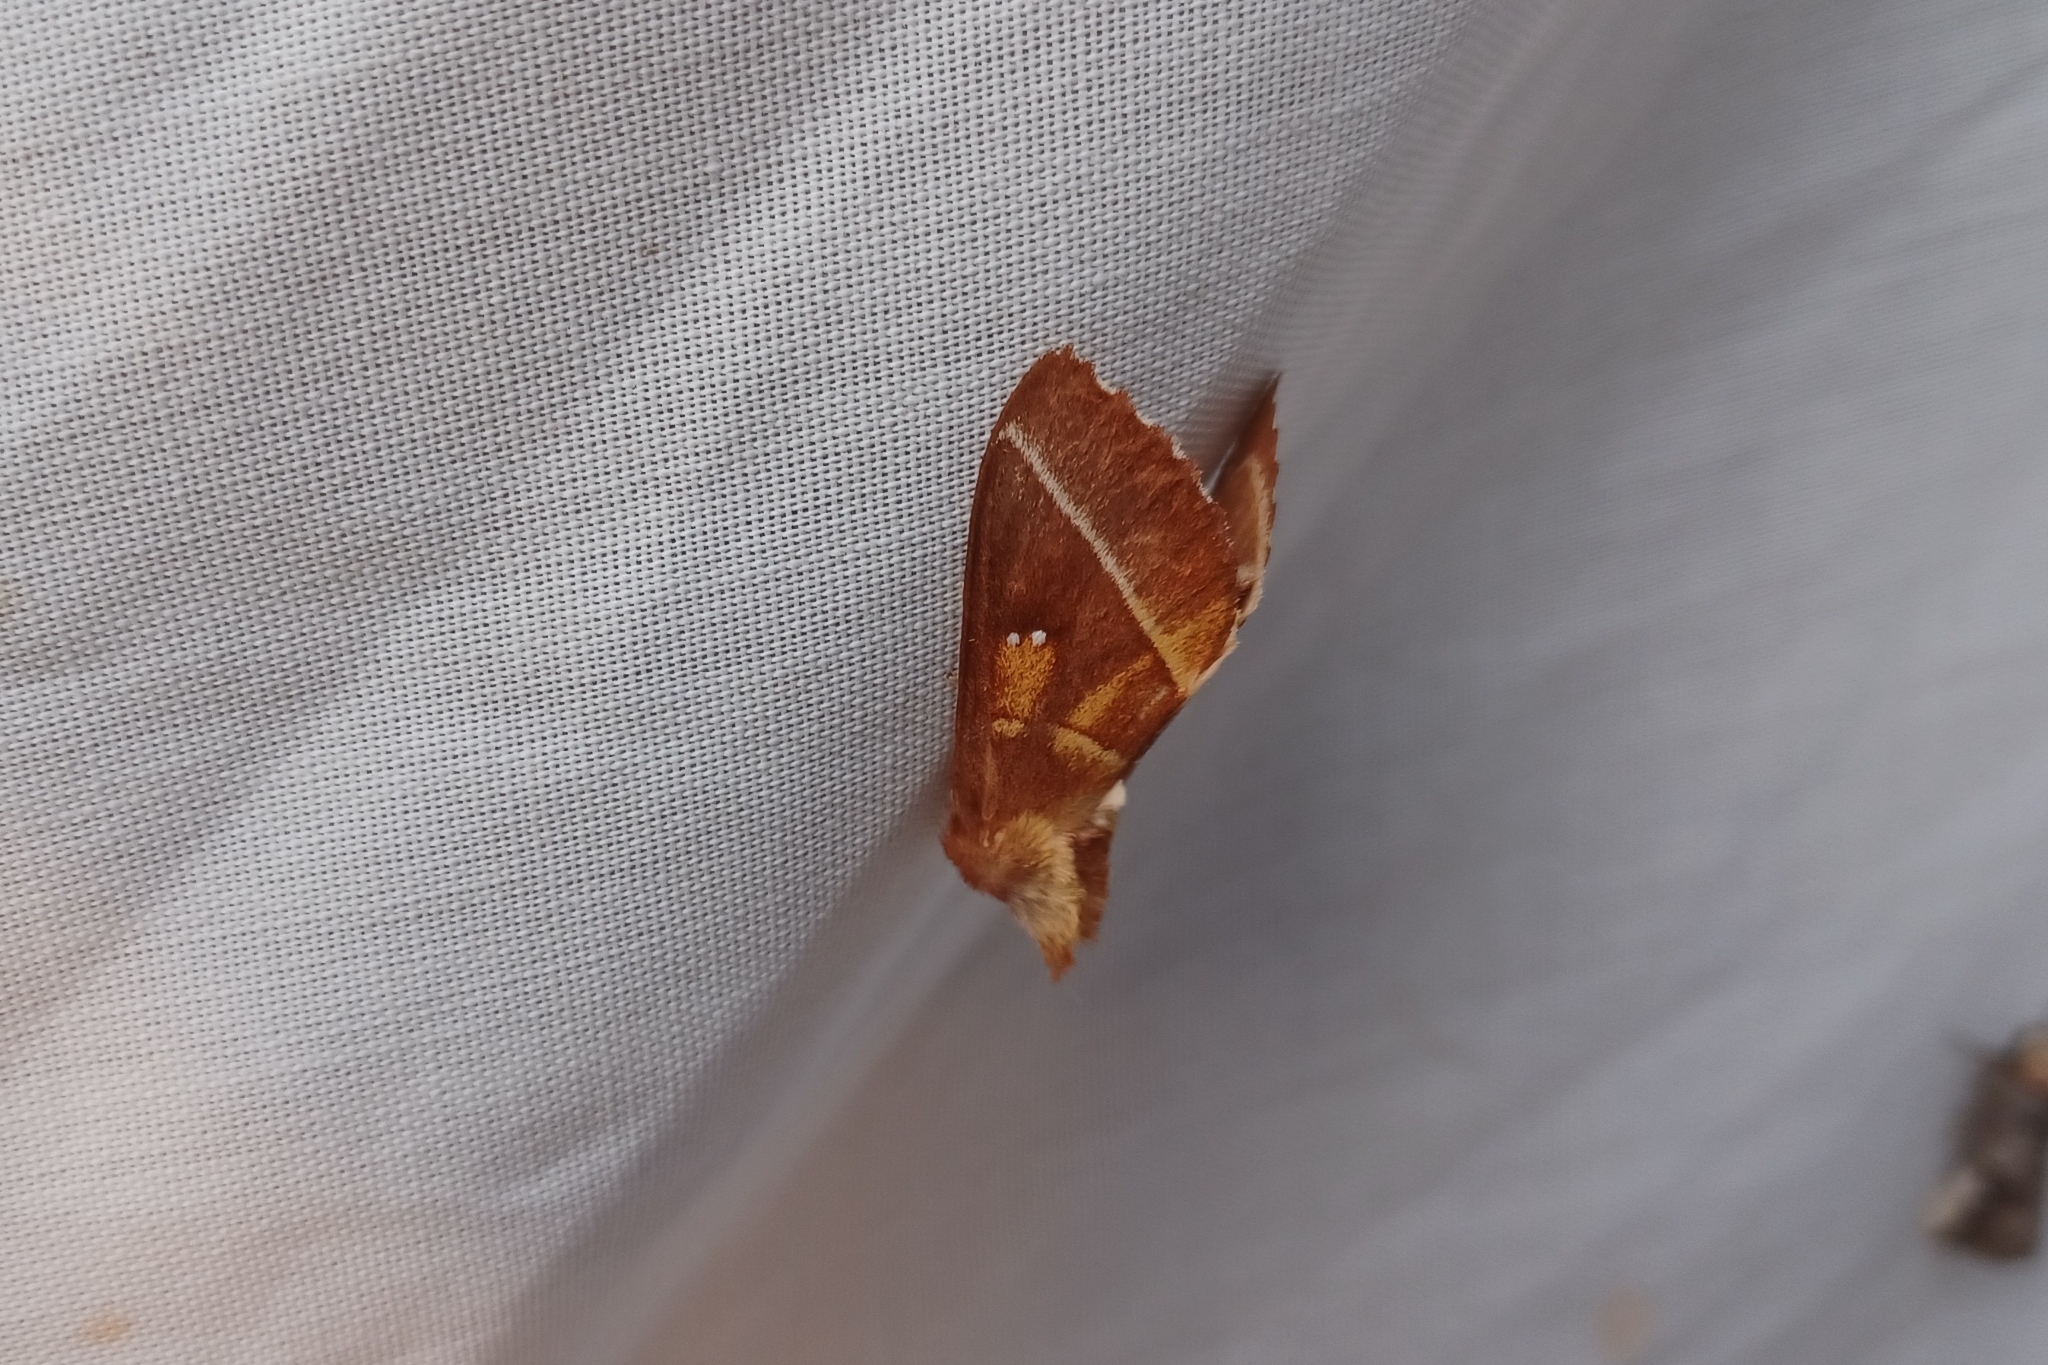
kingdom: Animalia
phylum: Arthropoda
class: Insecta
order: Lepidoptera
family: Notodontidae
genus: Nadata
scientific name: Nadata gibbosa
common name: White-dotted prominent
